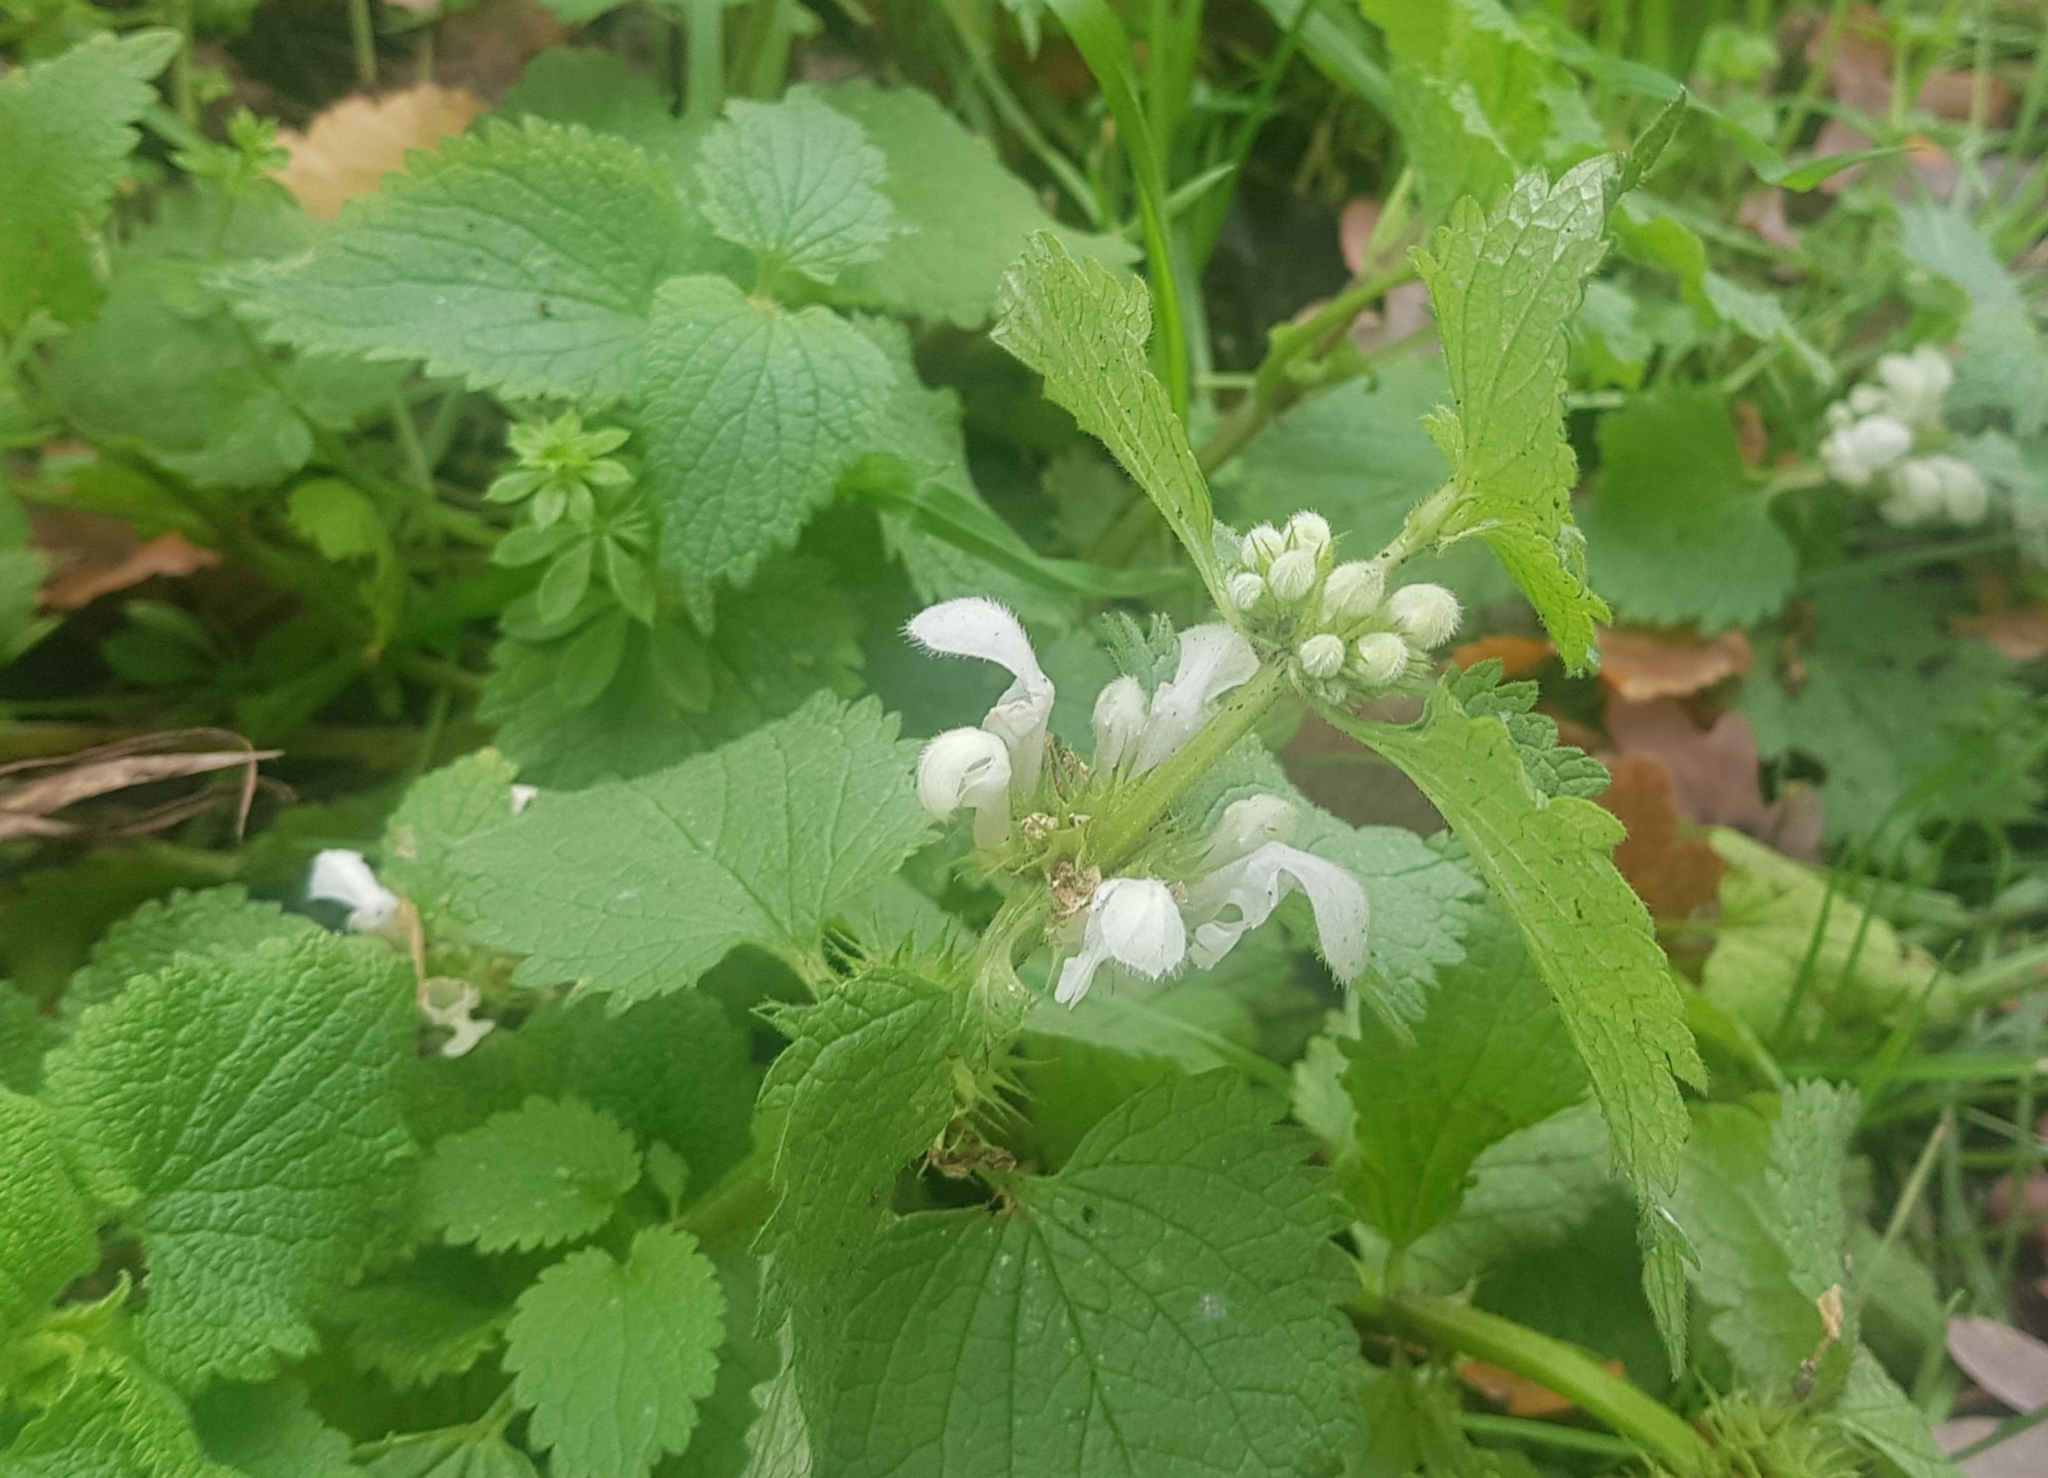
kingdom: Plantae
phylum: Tracheophyta
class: Magnoliopsida
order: Lamiales
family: Lamiaceae
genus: Lamium
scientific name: Lamium album
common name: White dead-nettle
